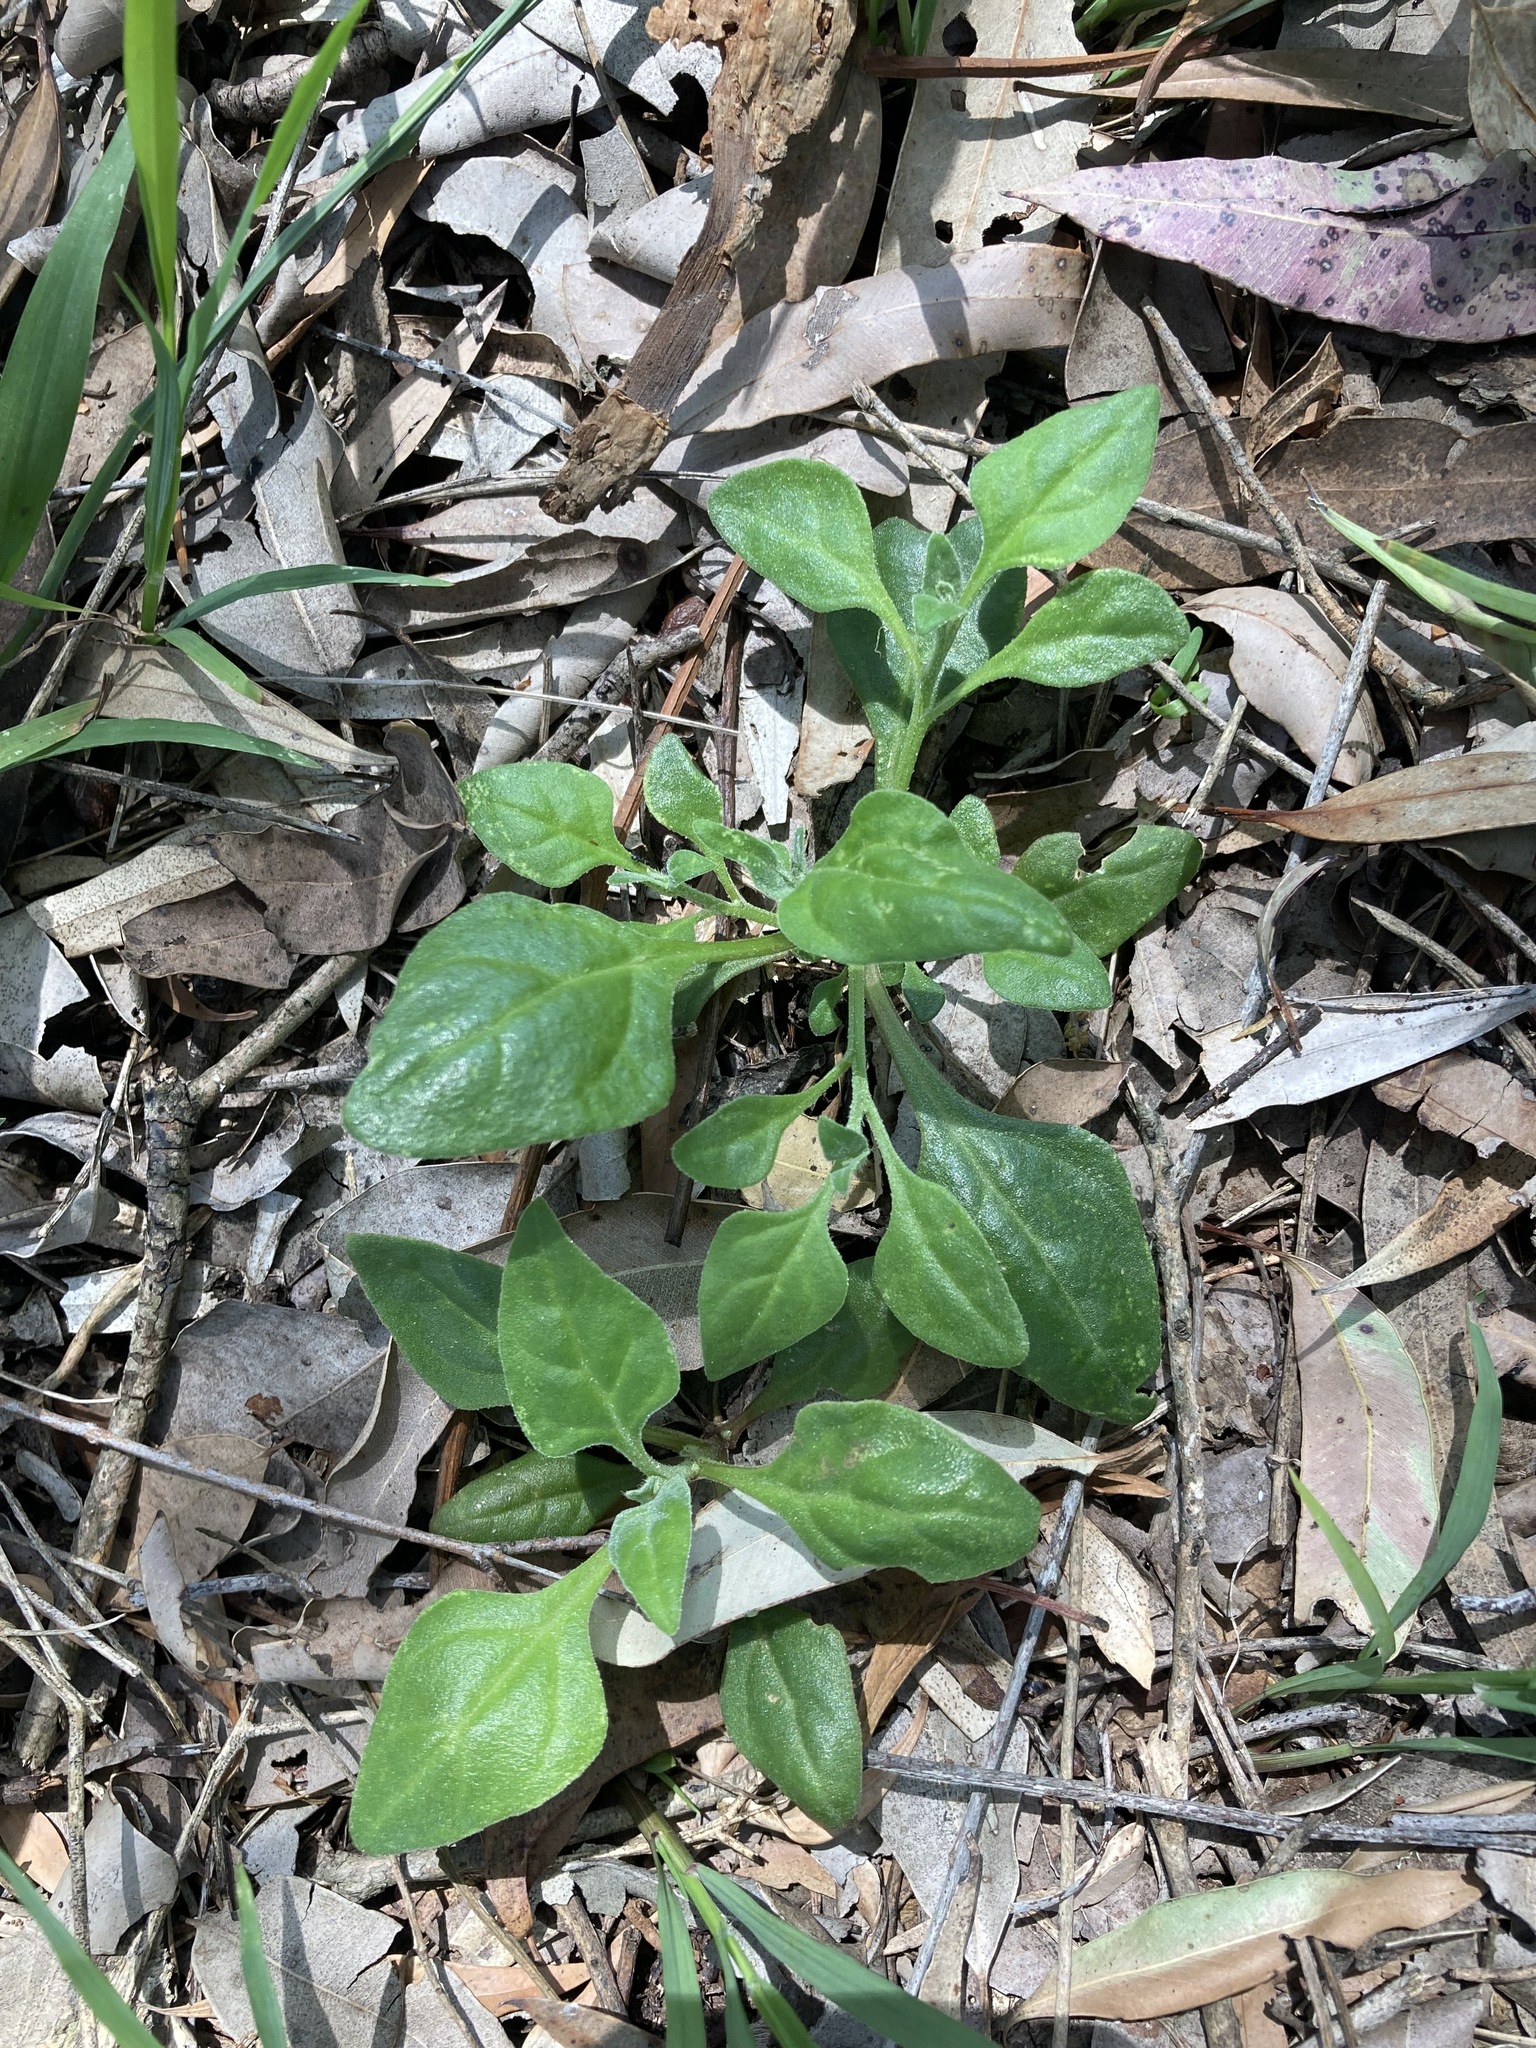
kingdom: Plantae
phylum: Tracheophyta
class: Magnoliopsida
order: Caryophyllales
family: Aizoaceae
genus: Tetragonia
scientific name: Tetragonia tetragonoides
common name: New zealand-spinach
